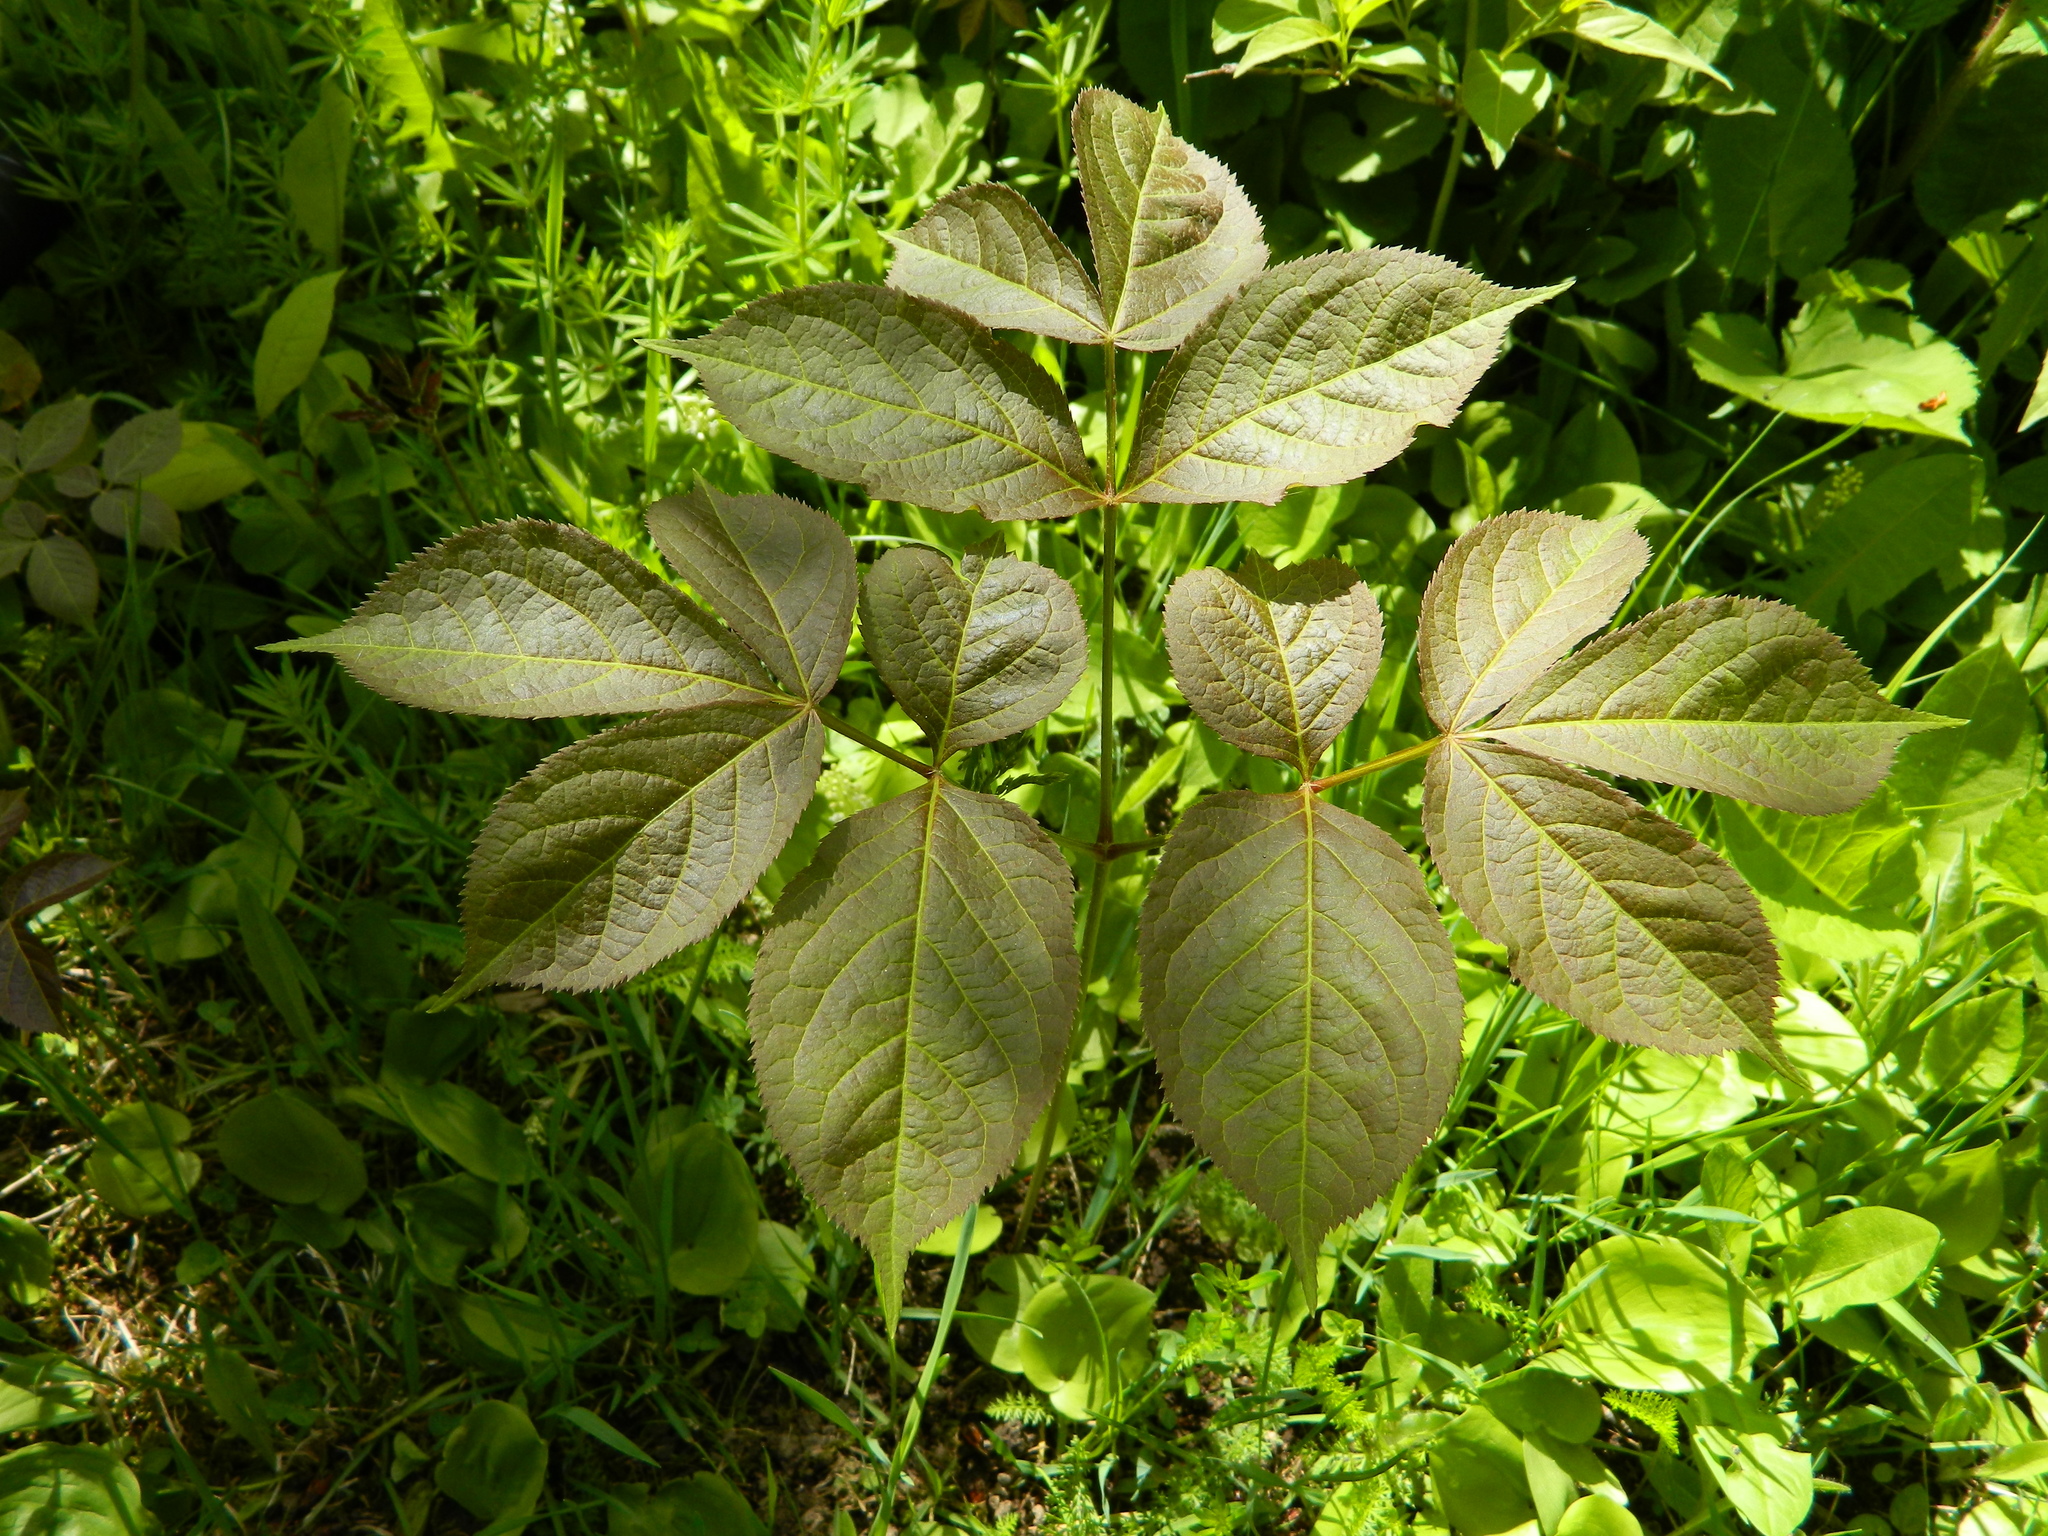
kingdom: Plantae
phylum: Tracheophyta
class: Magnoliopsida
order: Apiales
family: Araliaceae
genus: Aralia
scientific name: Aralia nudicaulis
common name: Wild sarsaparilla
